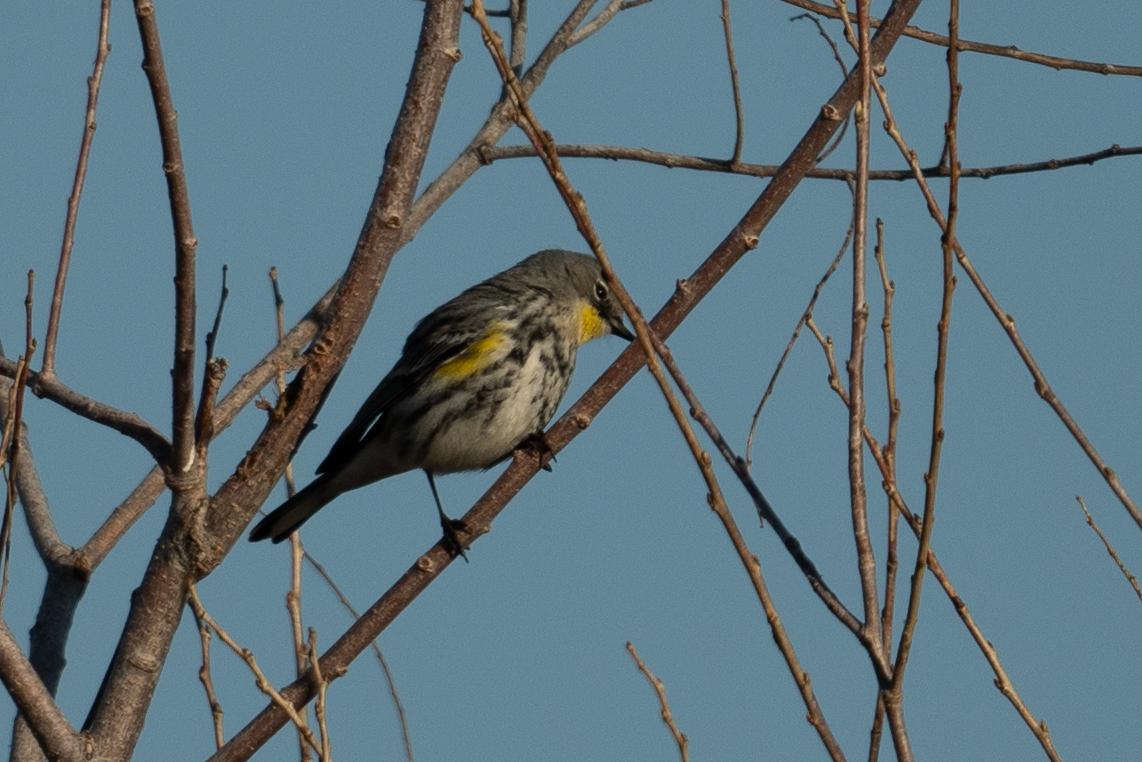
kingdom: Animalia
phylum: Chordata
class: Aves
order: Passeriformes
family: Parulidae
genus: Setophaga
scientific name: Setophaga coronata
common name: Myrtle warbler
